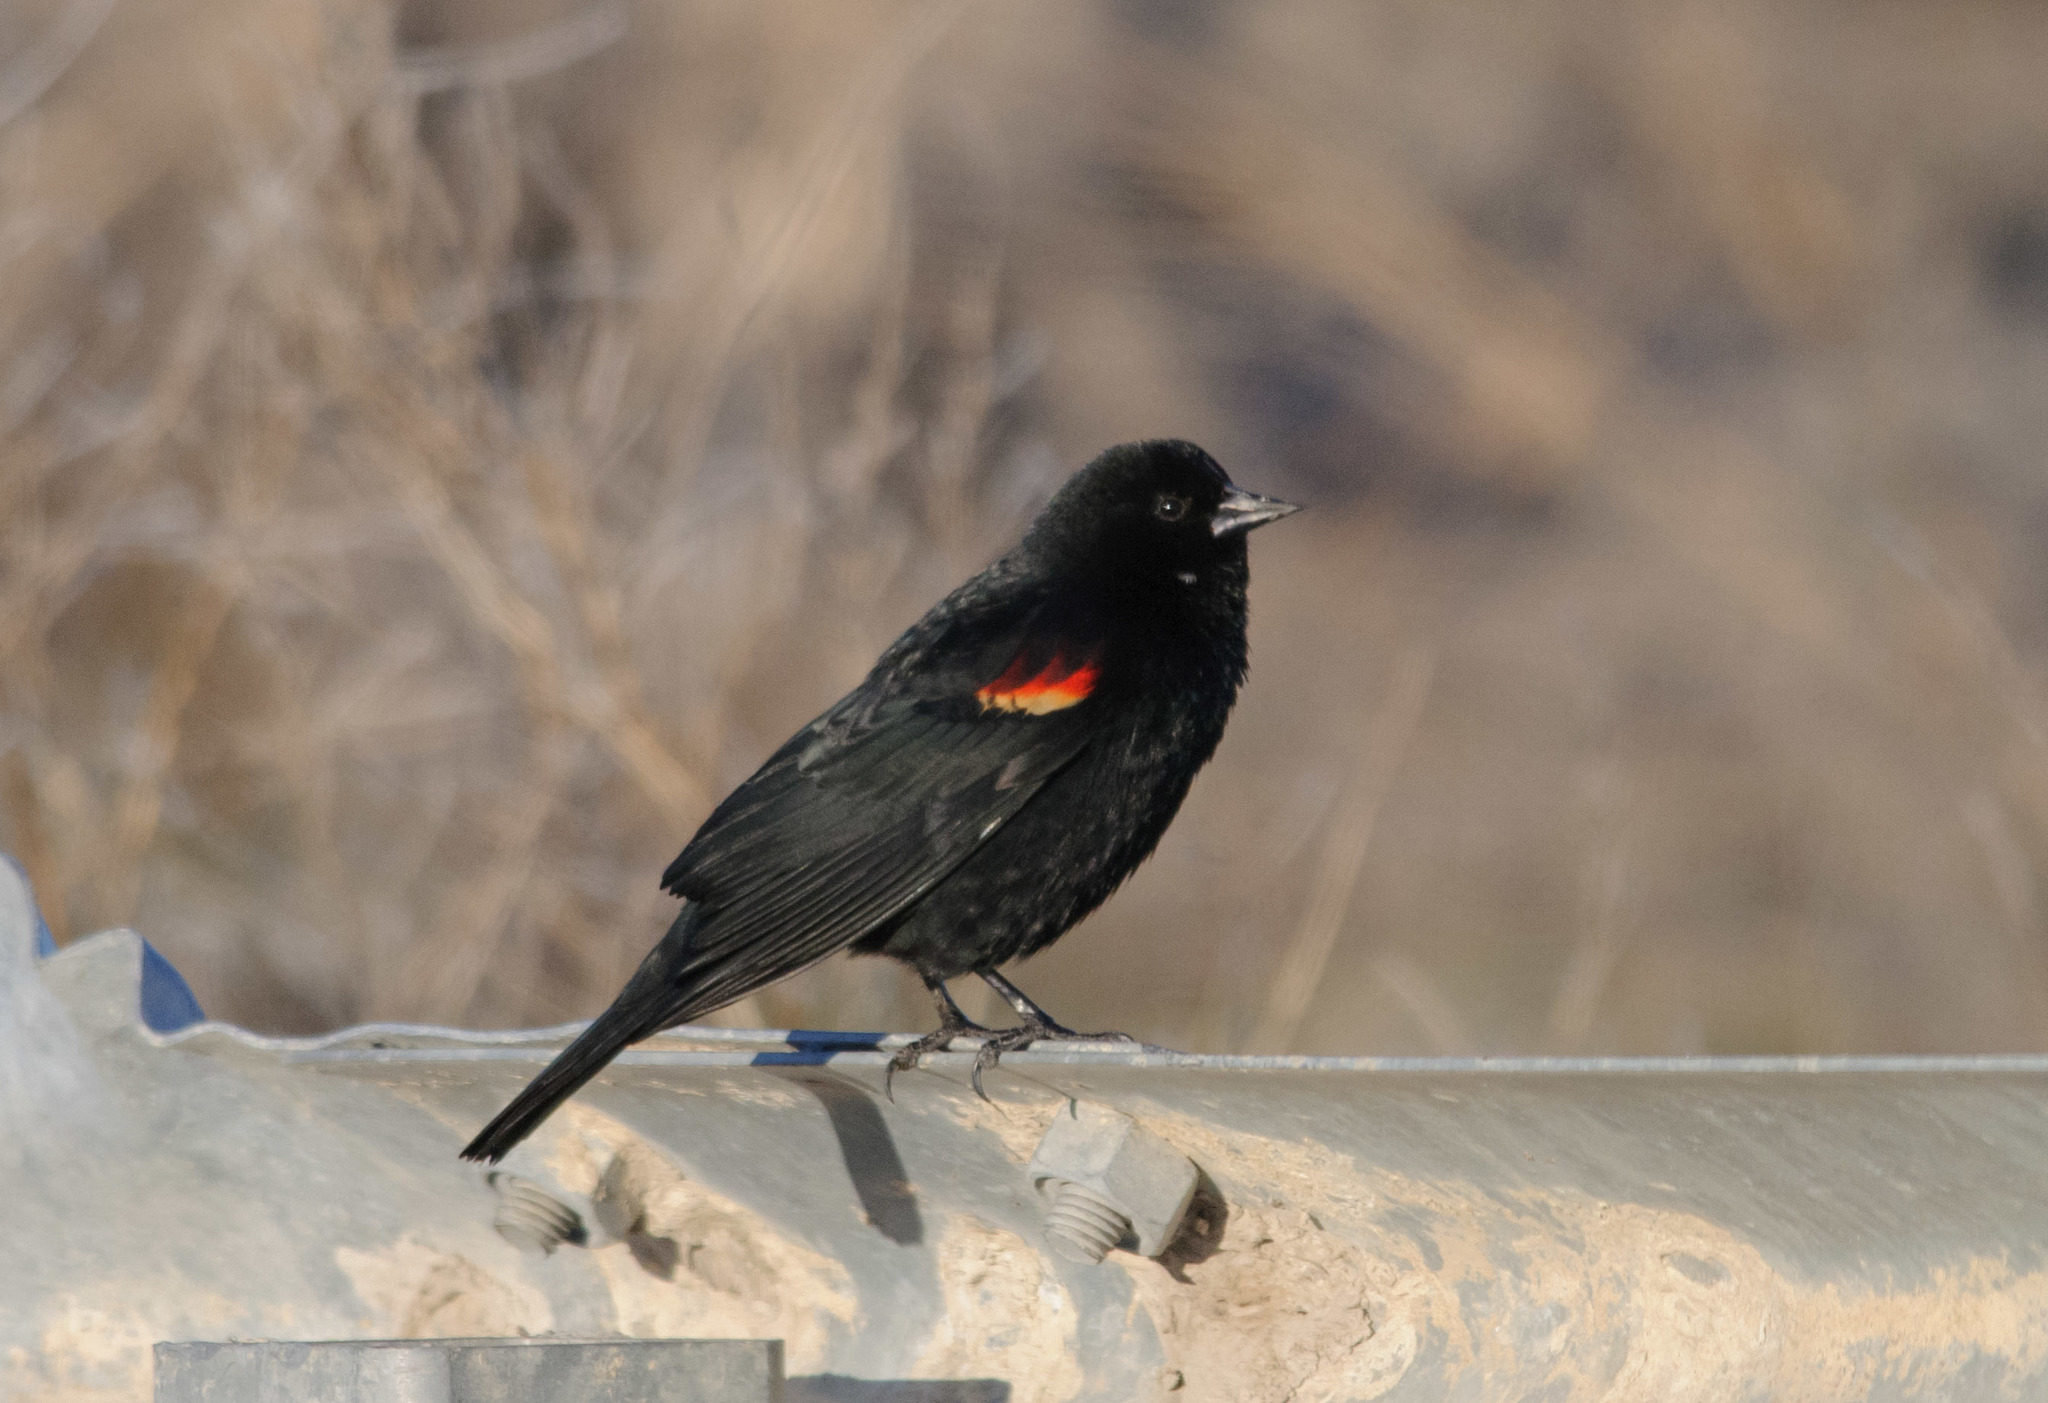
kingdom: Animalia
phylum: Chordata
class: Aves
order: Passeriformes
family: Icteridae
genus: Agelaius
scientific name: Agelaius phoeniceus
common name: Red-winged blackbird
